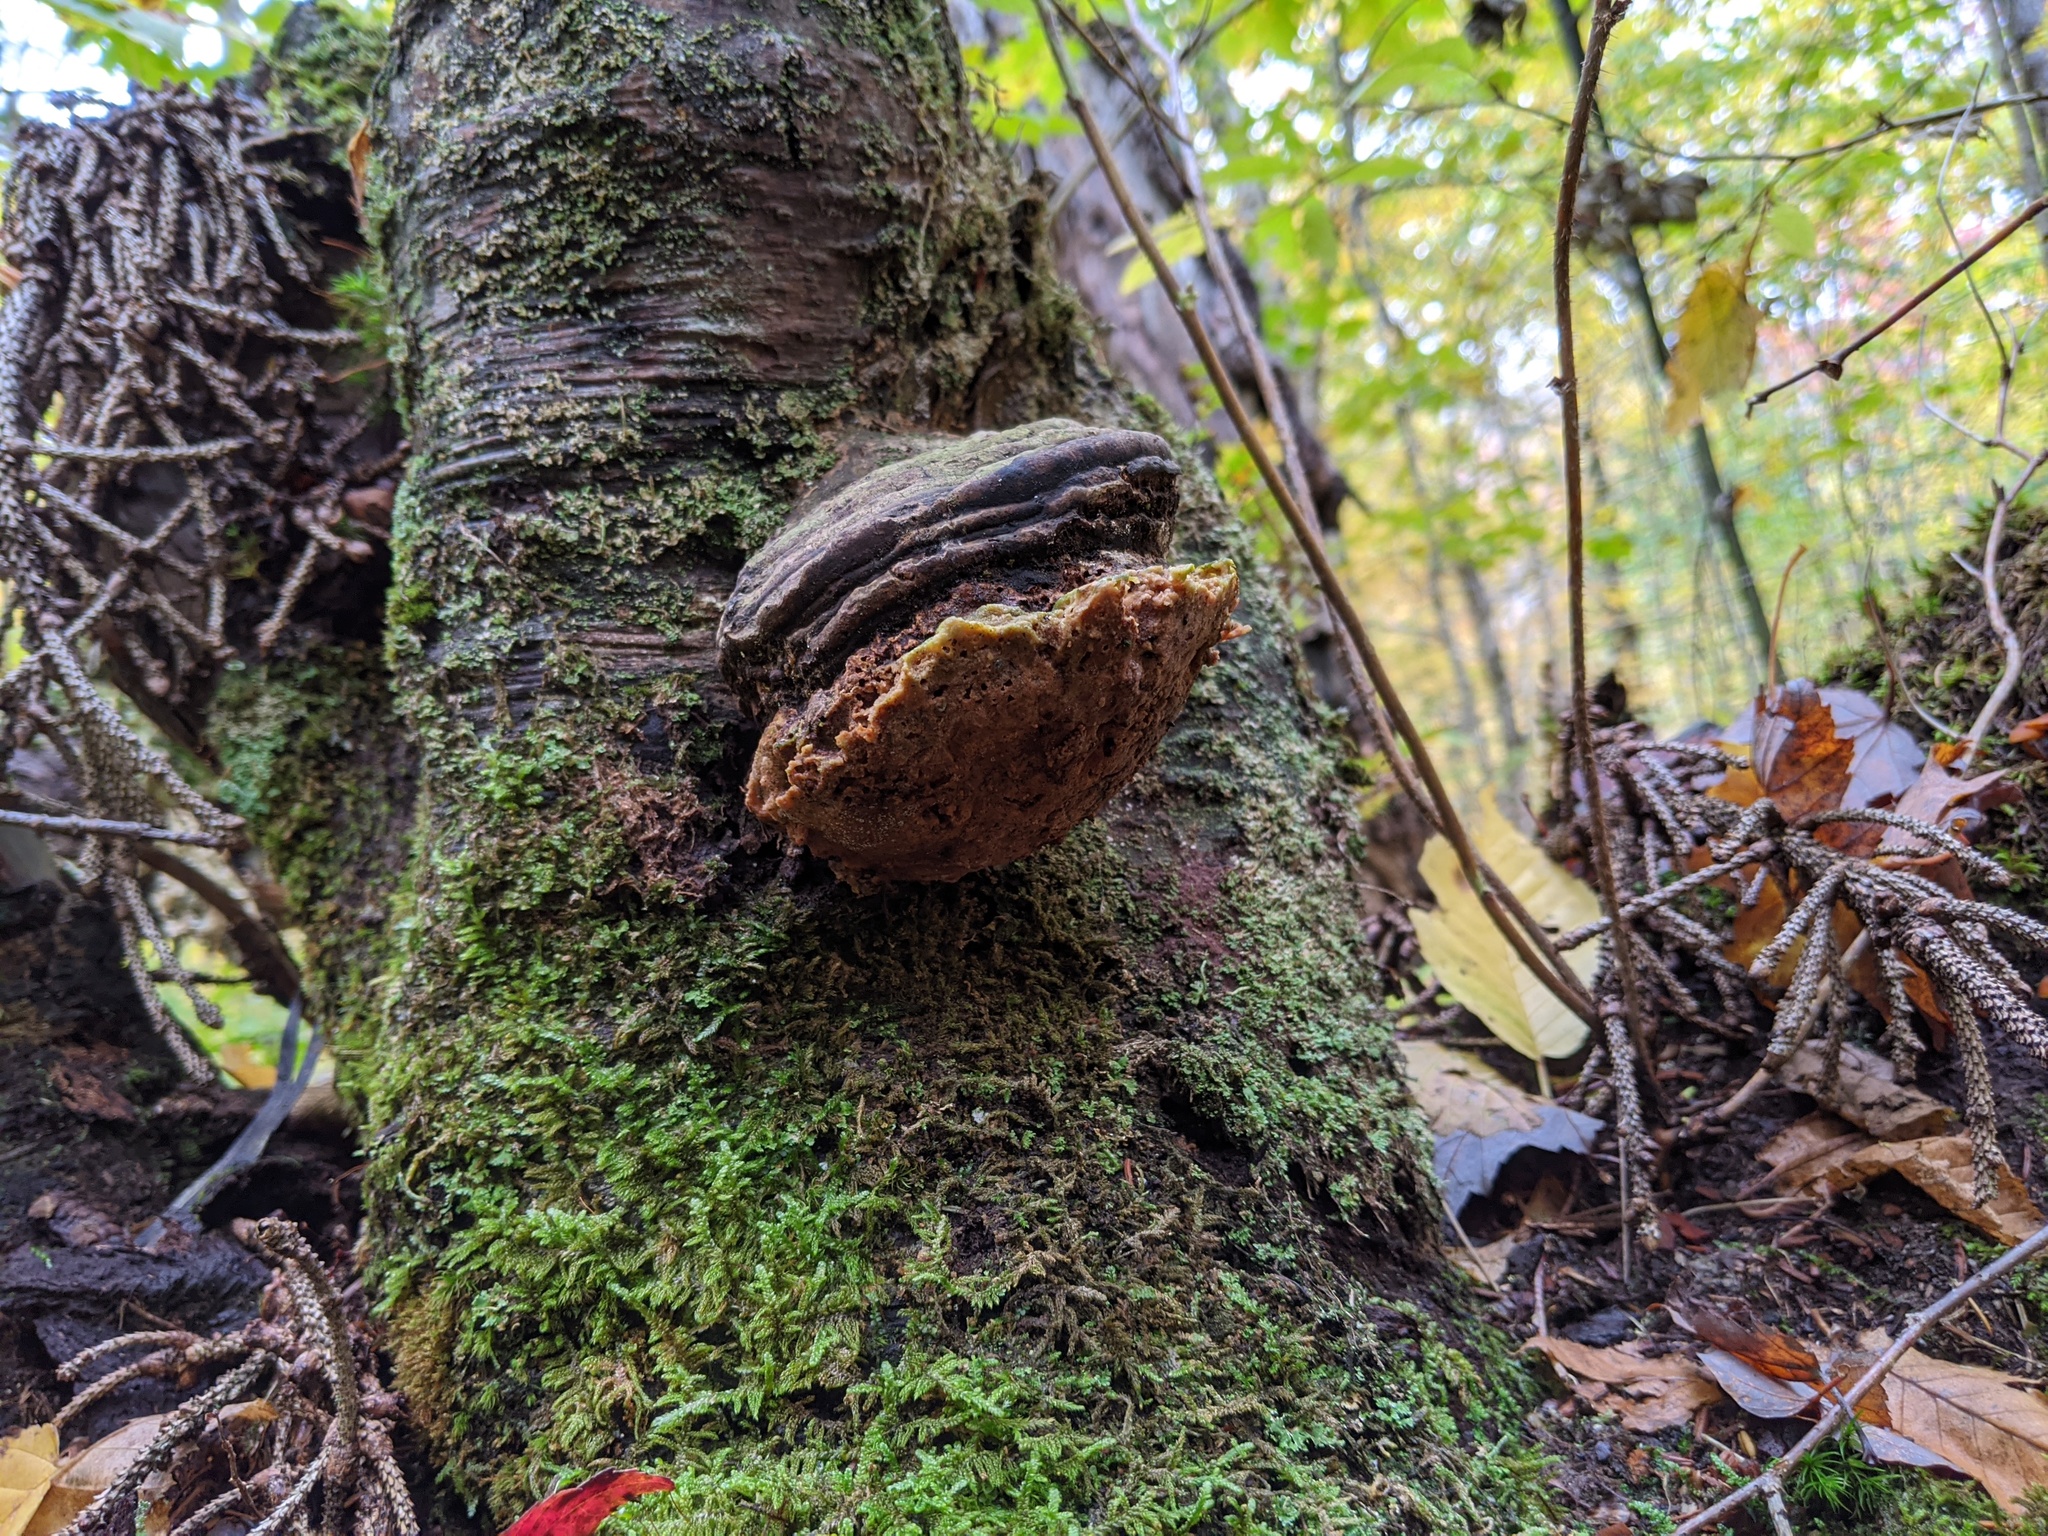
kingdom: Fungi
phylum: Basidiomycota
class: Agaricomycetes
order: Polyporales
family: Polyporaceae
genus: Fomes
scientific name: Fomes fomentarius
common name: Hoof fungus
